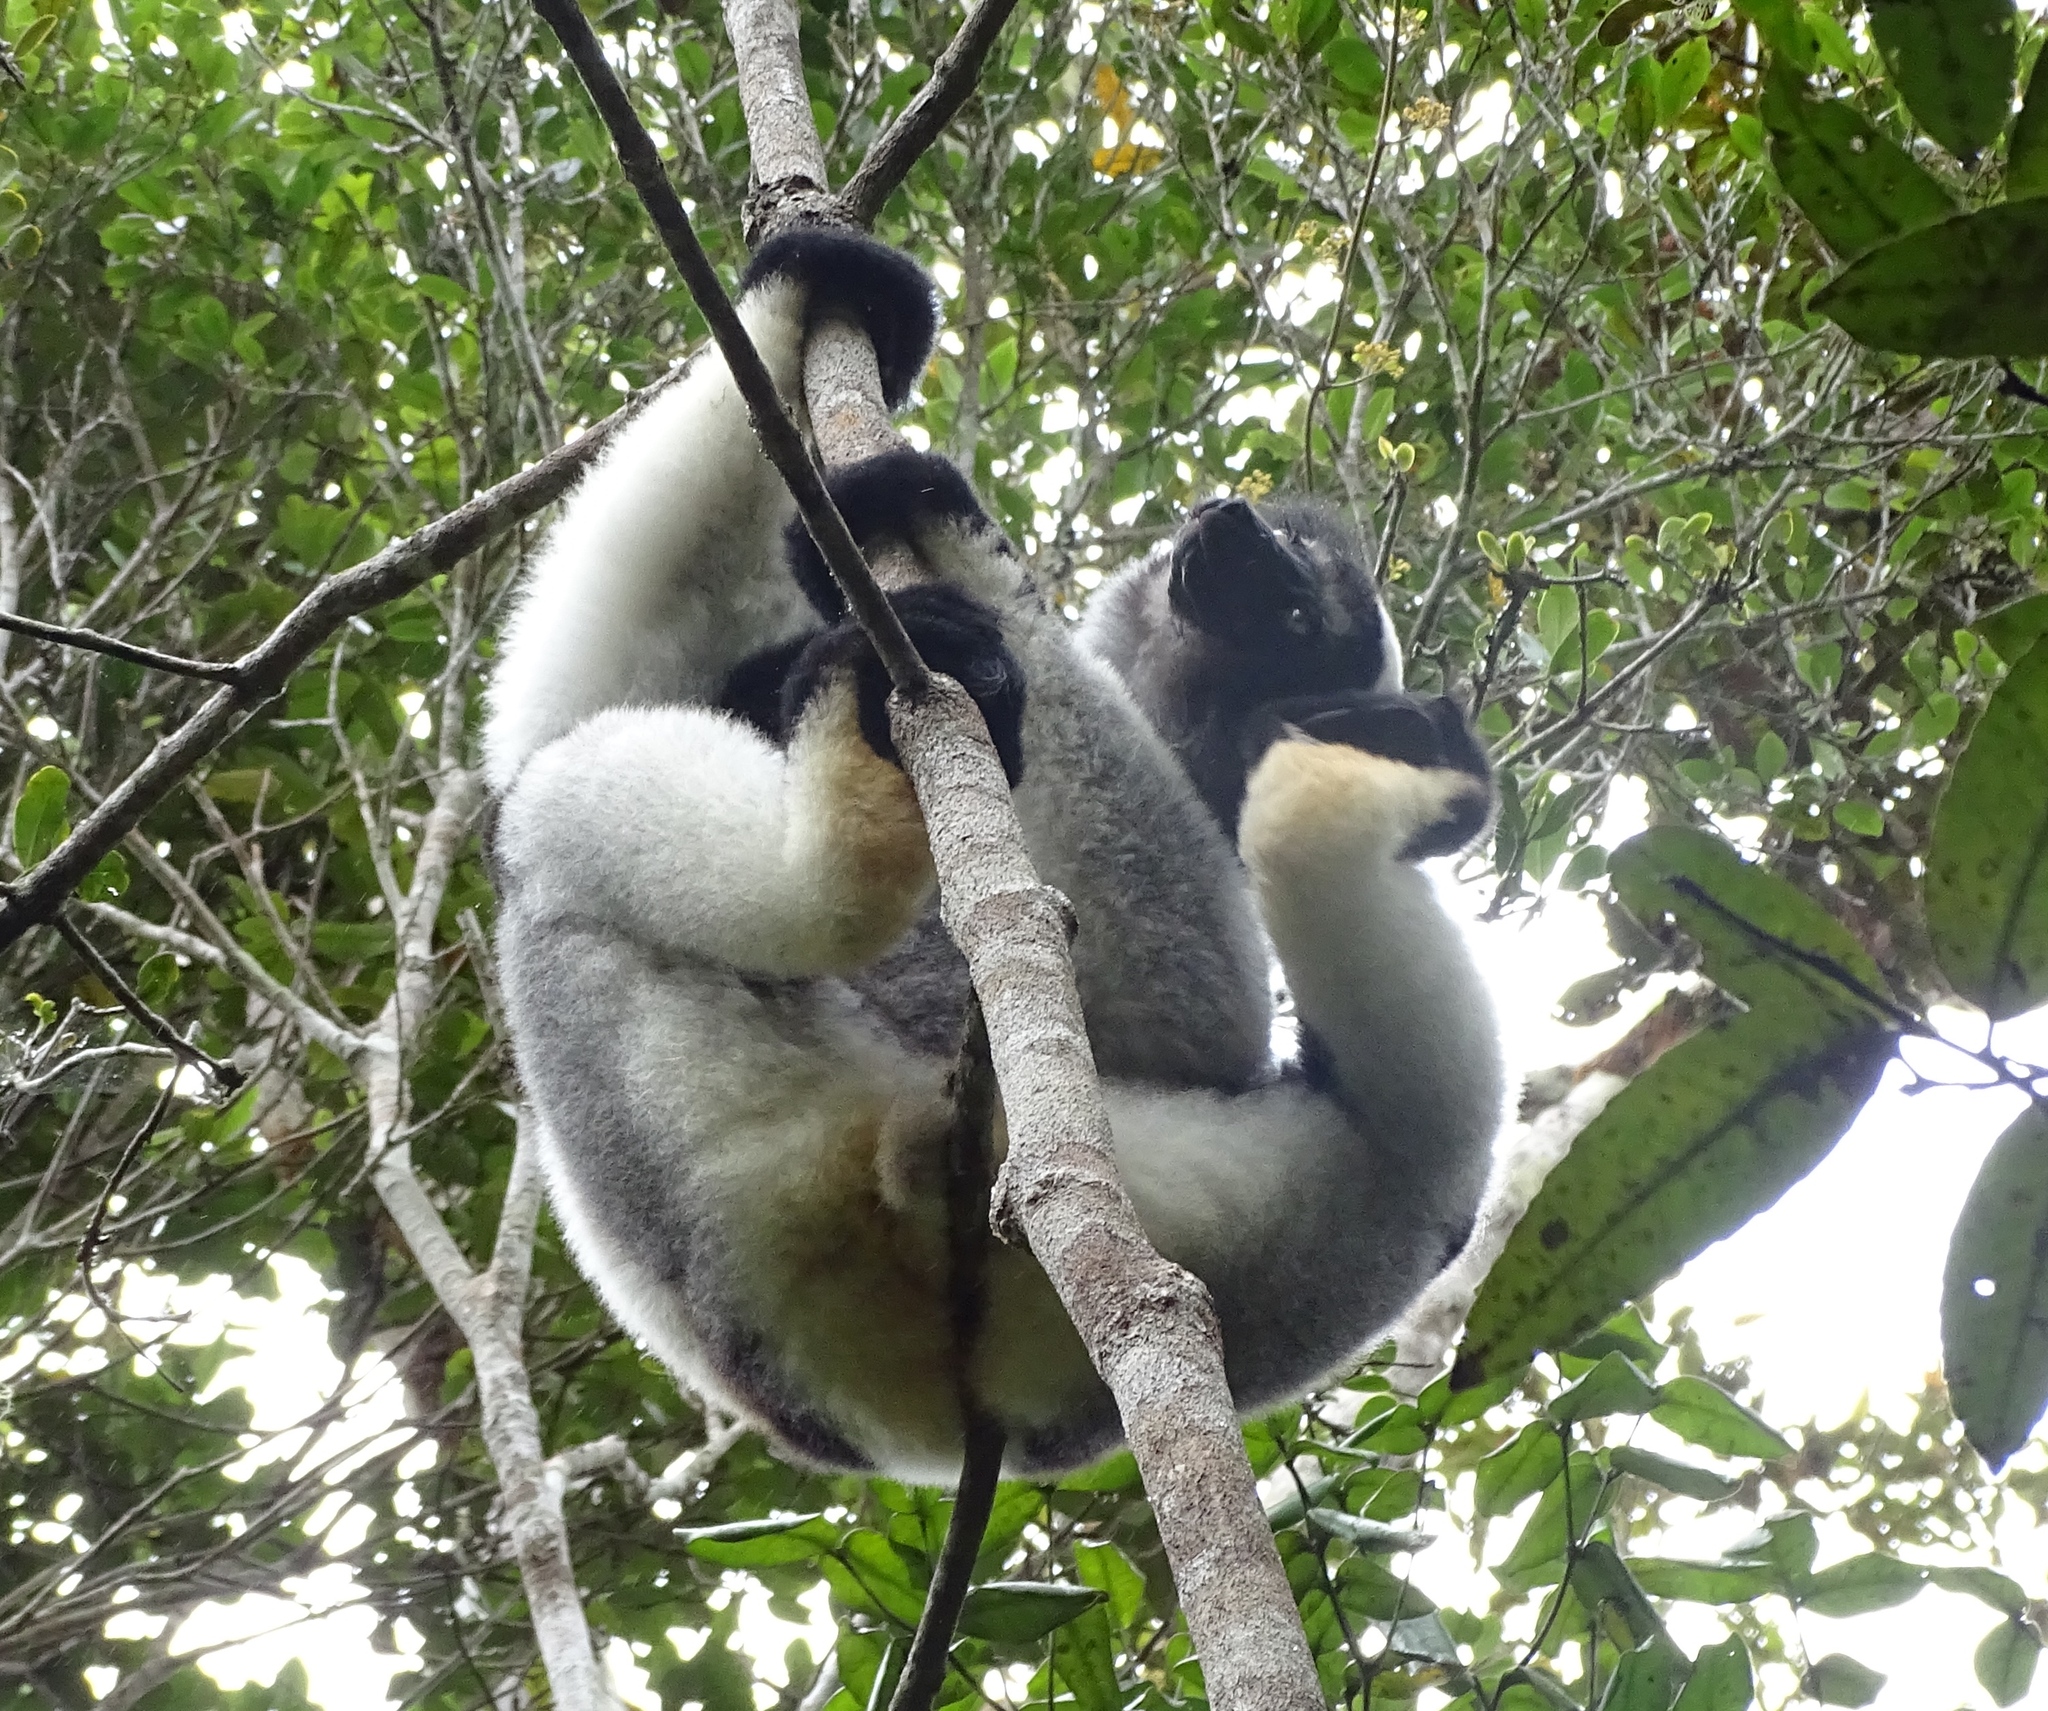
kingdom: Animalia
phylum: Chordata
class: Mammalia
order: Primates
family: Indriidae
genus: Indri
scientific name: Indri indri
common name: Indri
